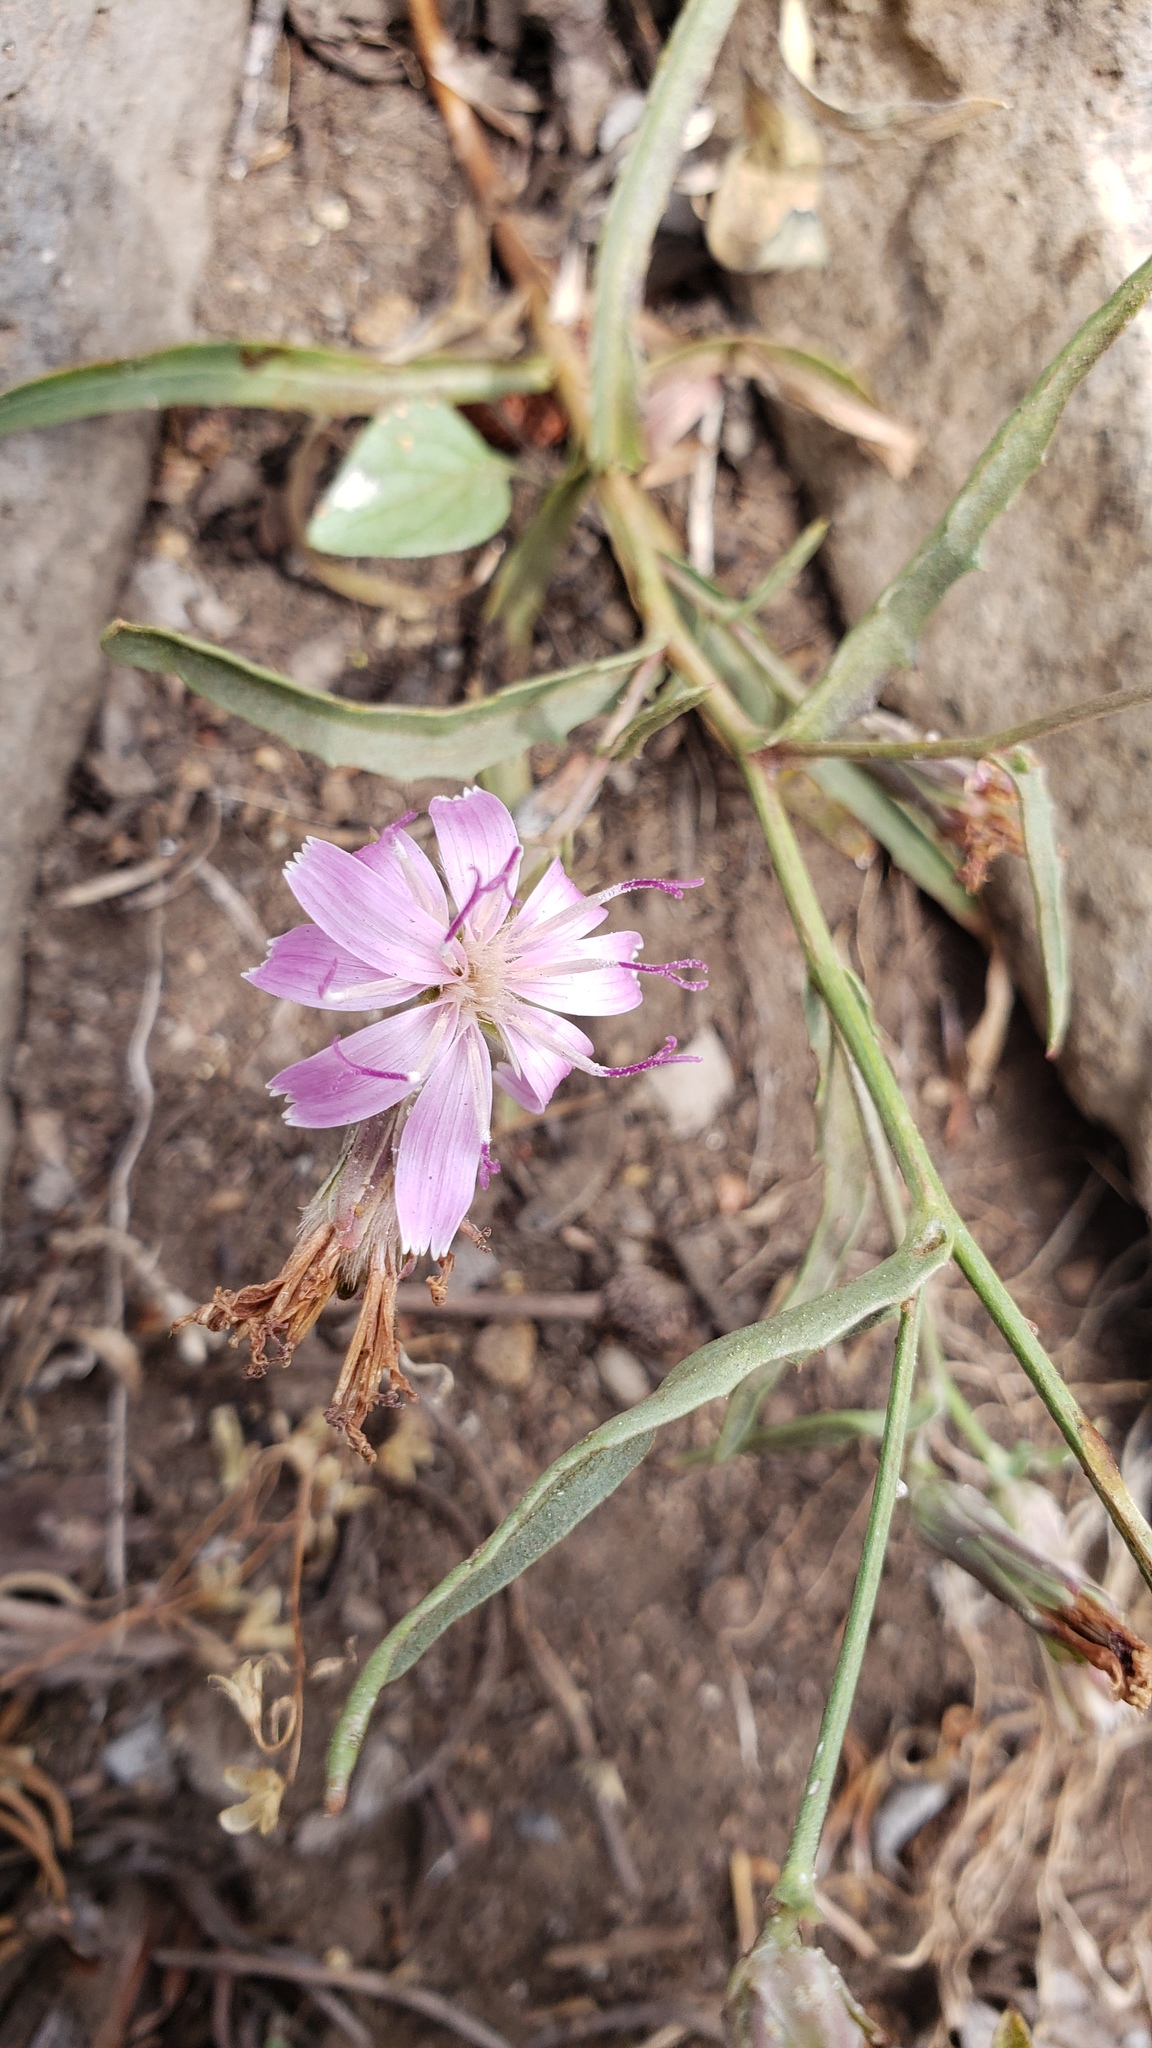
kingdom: Plantae
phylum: Tracheophyta
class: Magnoliopsida
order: Asterales
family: Asteraceae
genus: Stephanomeria
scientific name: Stephanomeria lactucina
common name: Large-flowered wirelettuce
